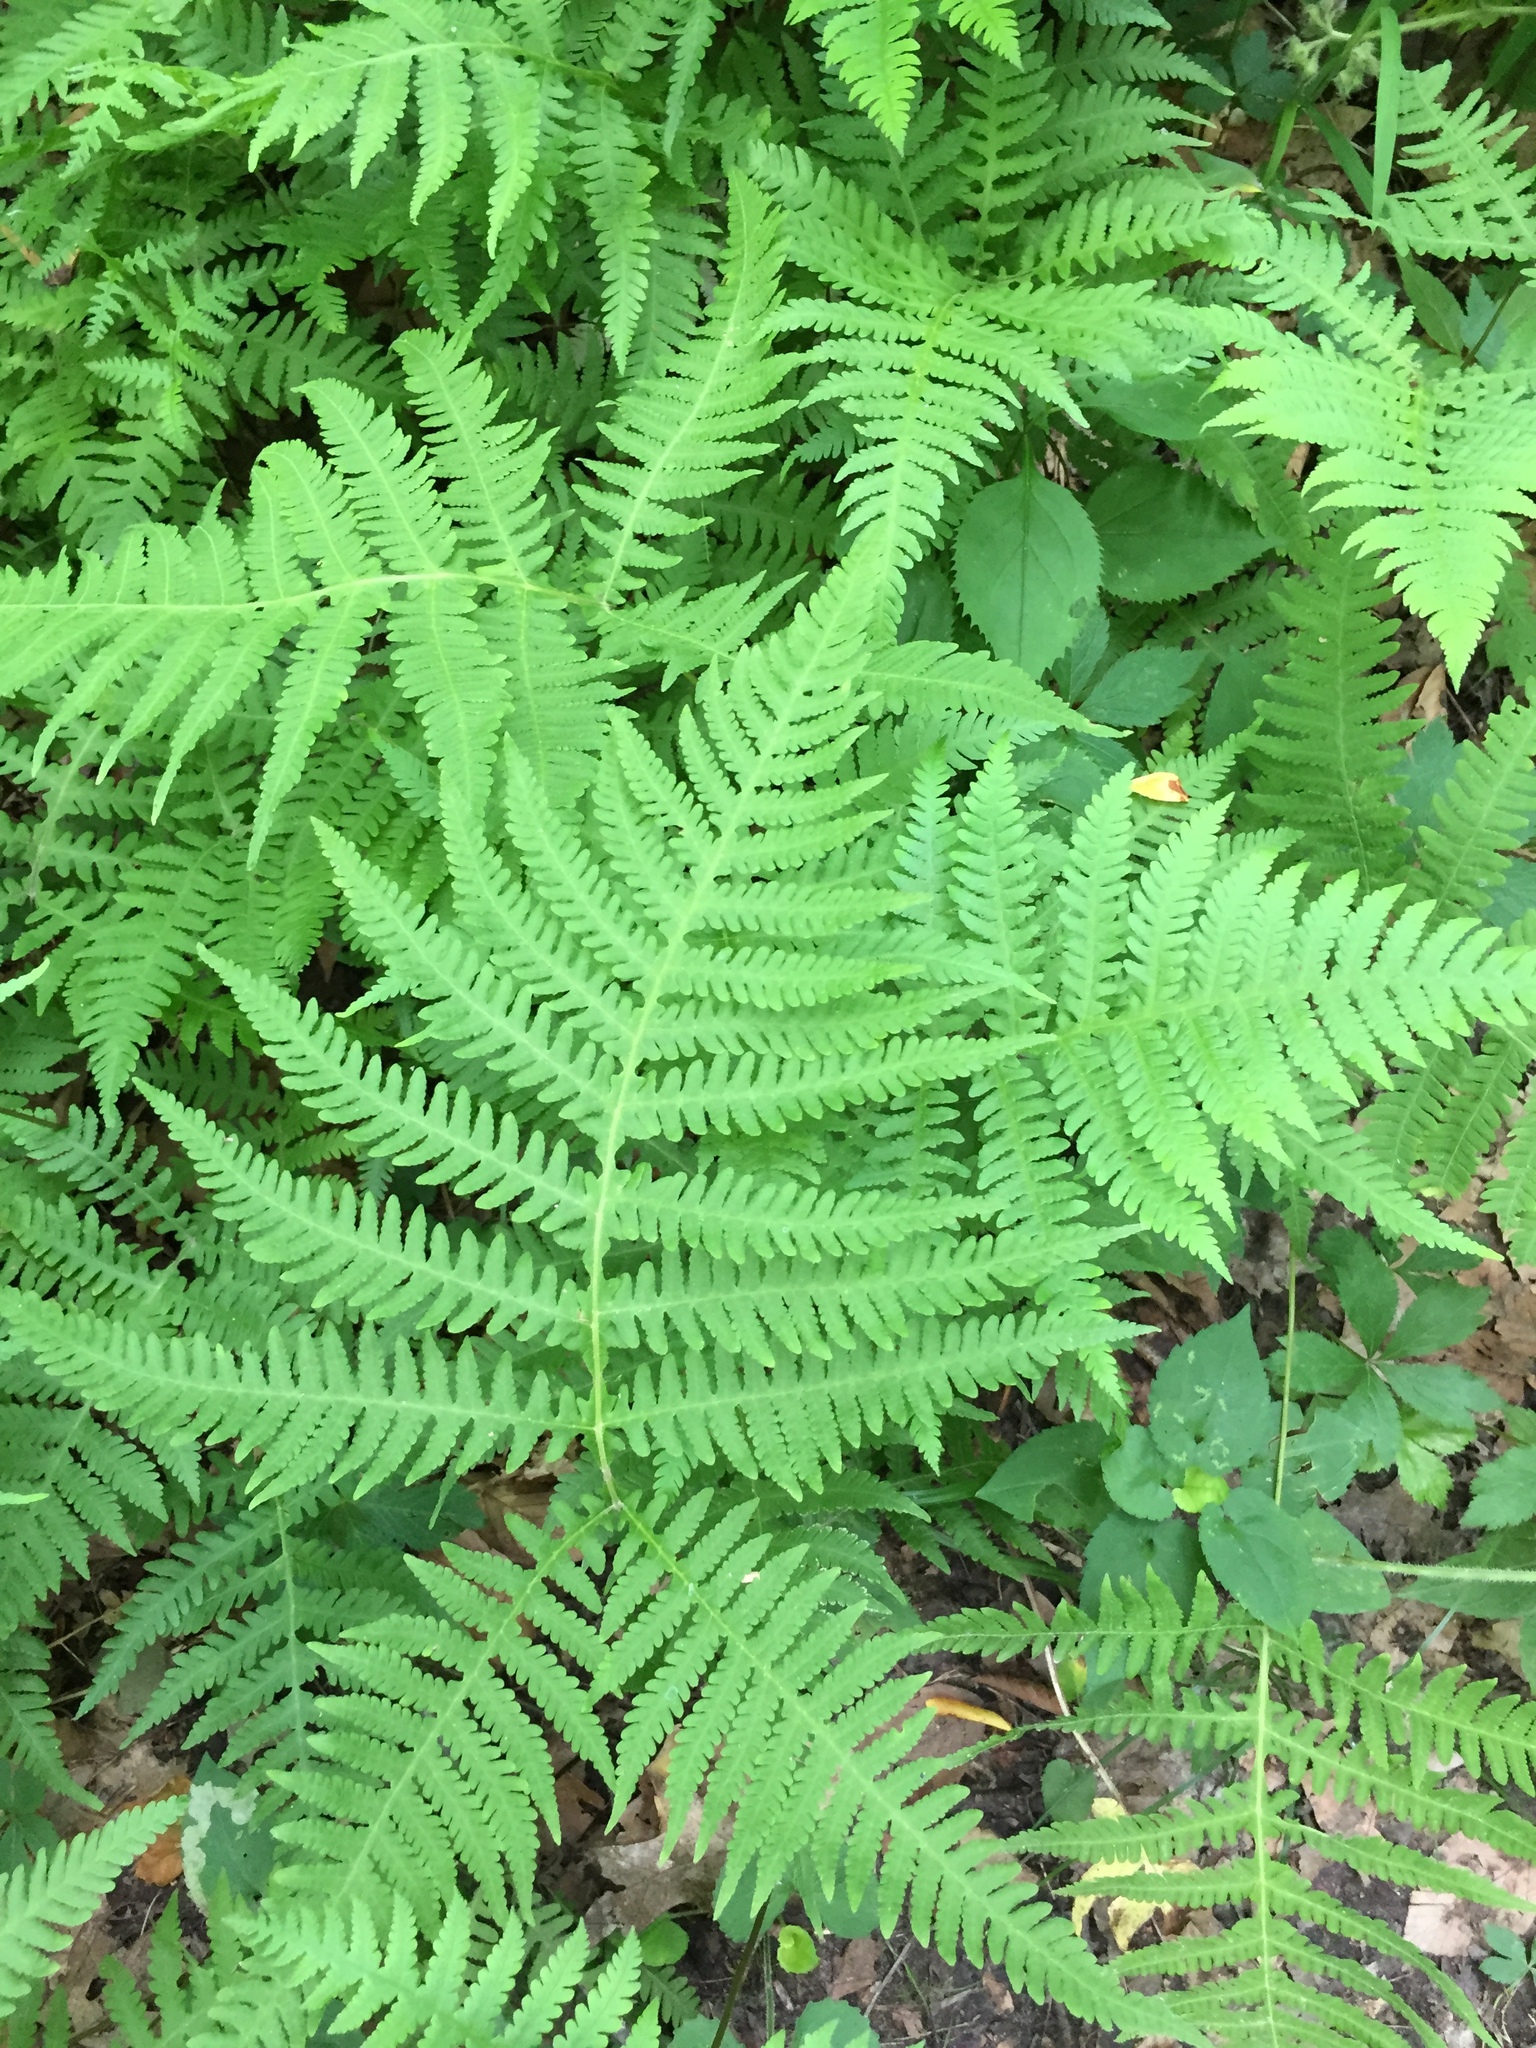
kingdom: Plantae
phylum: Tracheophyta
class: Polypodiopsida
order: Polypodiales
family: Thelypteridaceae
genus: Phegopteris
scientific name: Phegopteris hexagonoptera
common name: Broad beech fern
